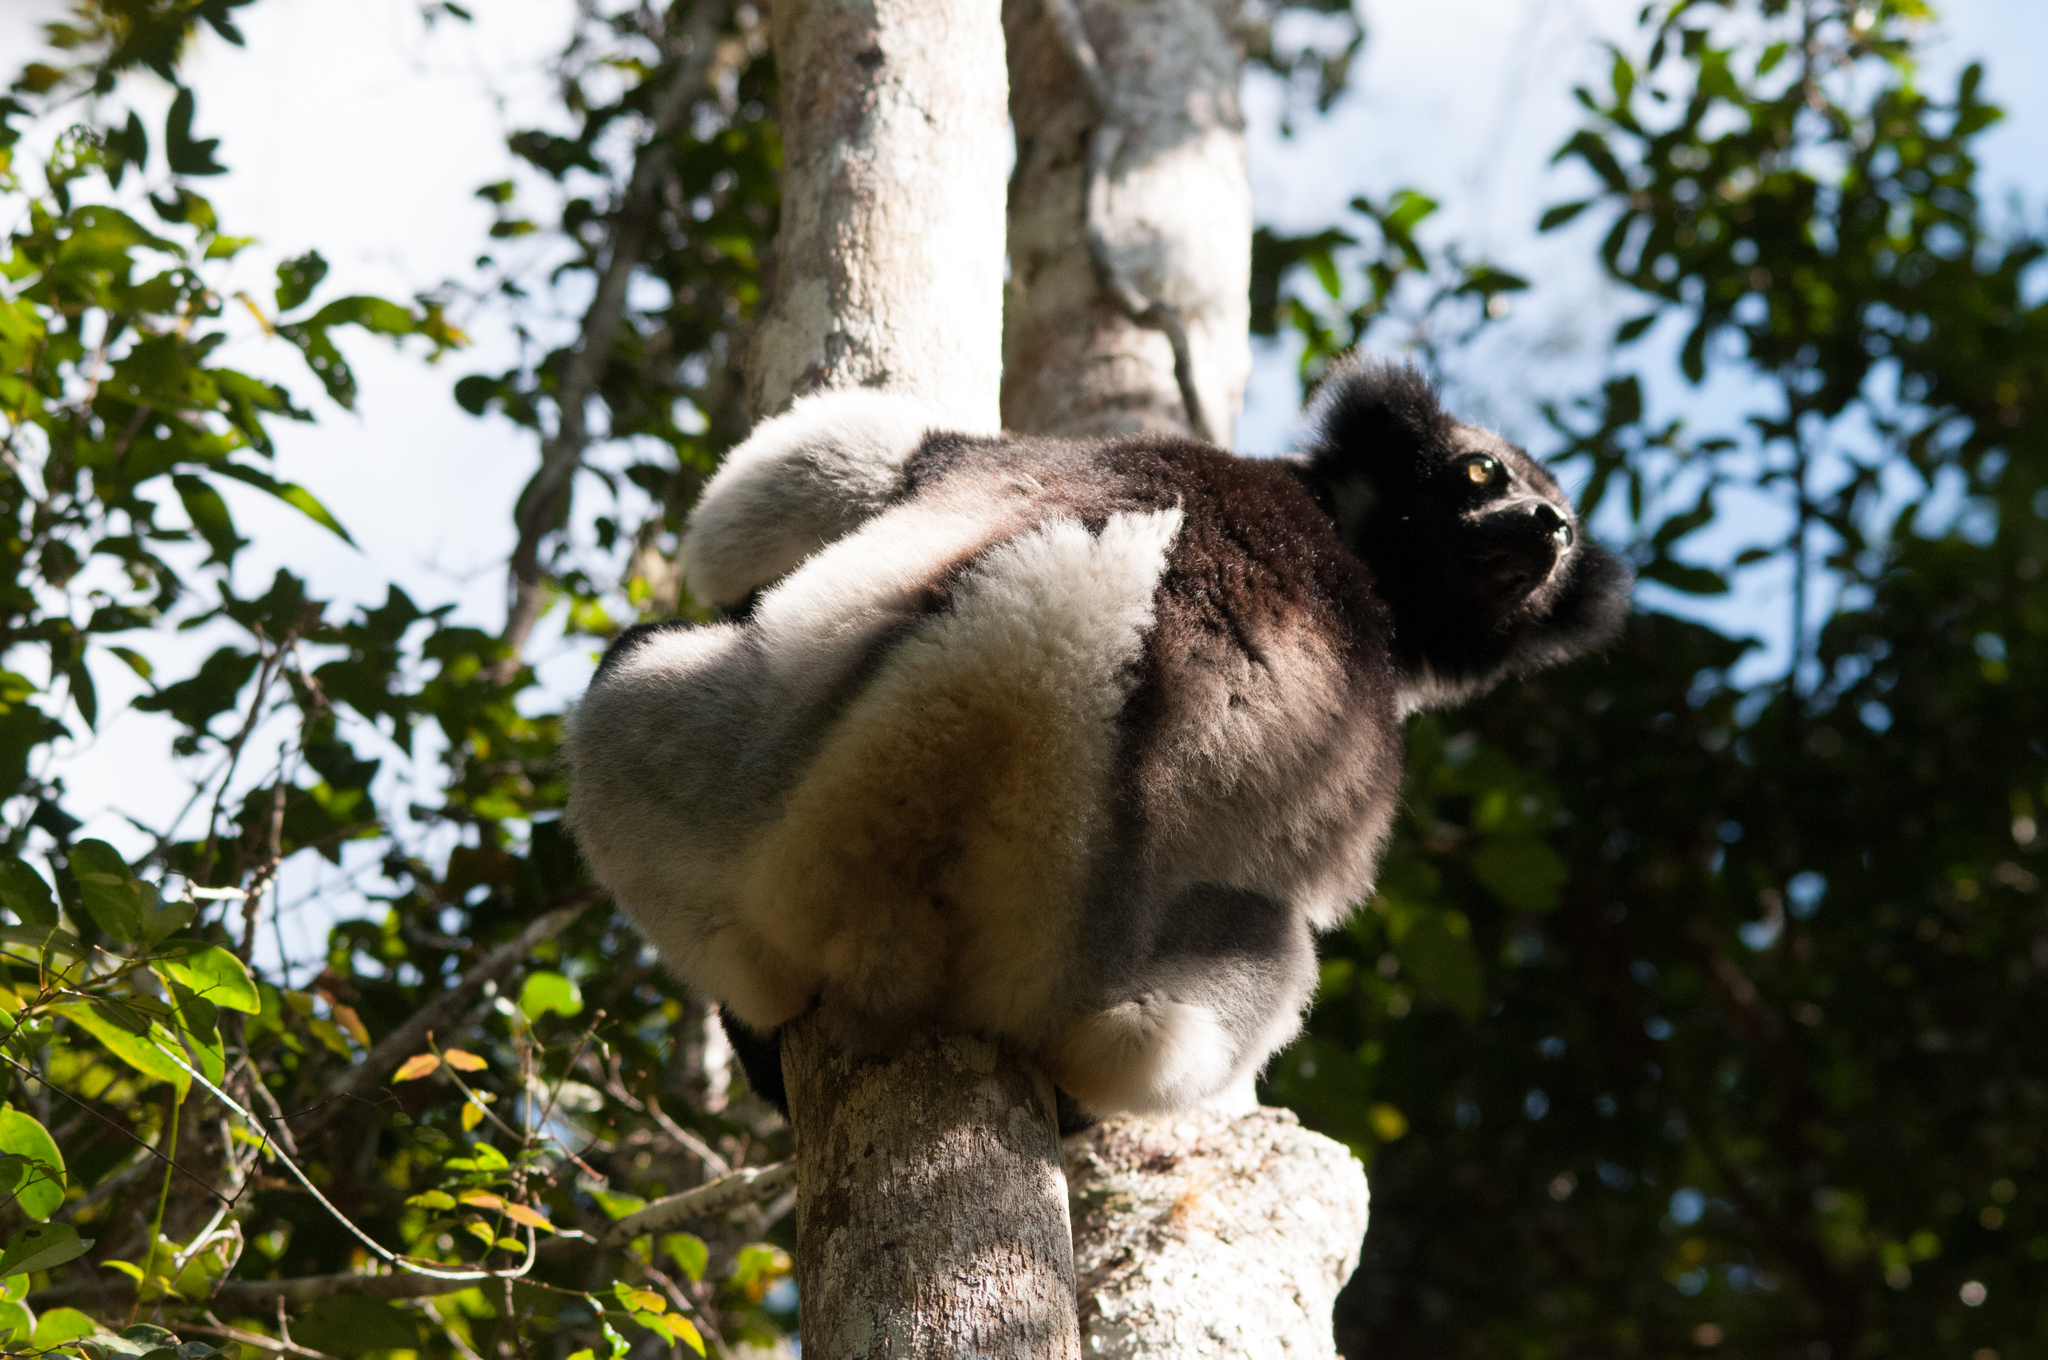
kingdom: Animalia
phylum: Chordata
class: Mammalia
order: Primates
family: Indriidae
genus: Indri
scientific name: Indri indri
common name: Indri
